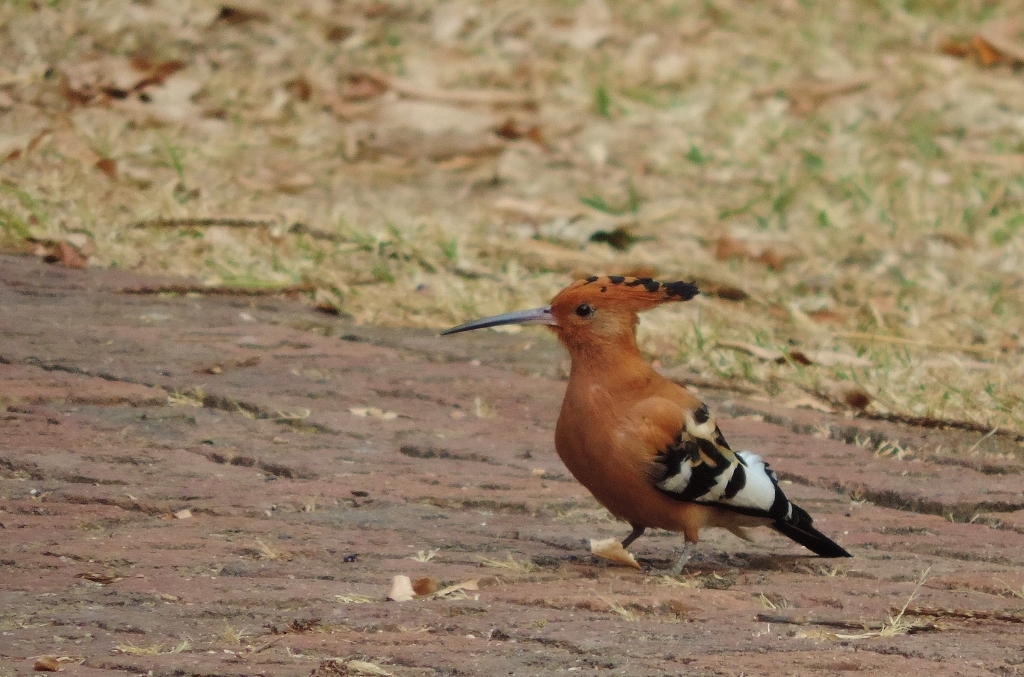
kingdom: Animalia
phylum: Chordata
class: Aves
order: Bucerotiformes
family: Upupidae
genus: Upupa
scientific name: Upupa africana
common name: African hoopoe
